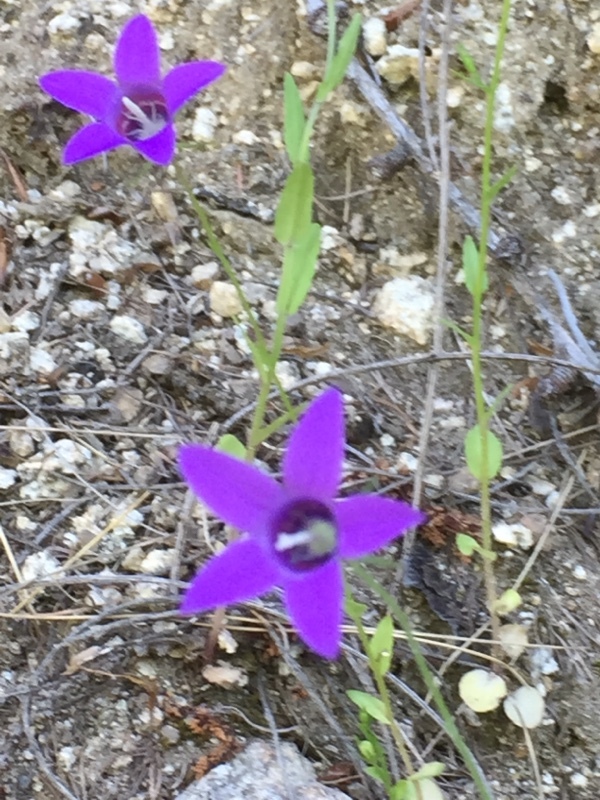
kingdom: Plantae
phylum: Tracheophyta
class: Magnoliopsida
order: Asterales
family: Campanulaceae
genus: Campanula
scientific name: Campanula lusitanica
